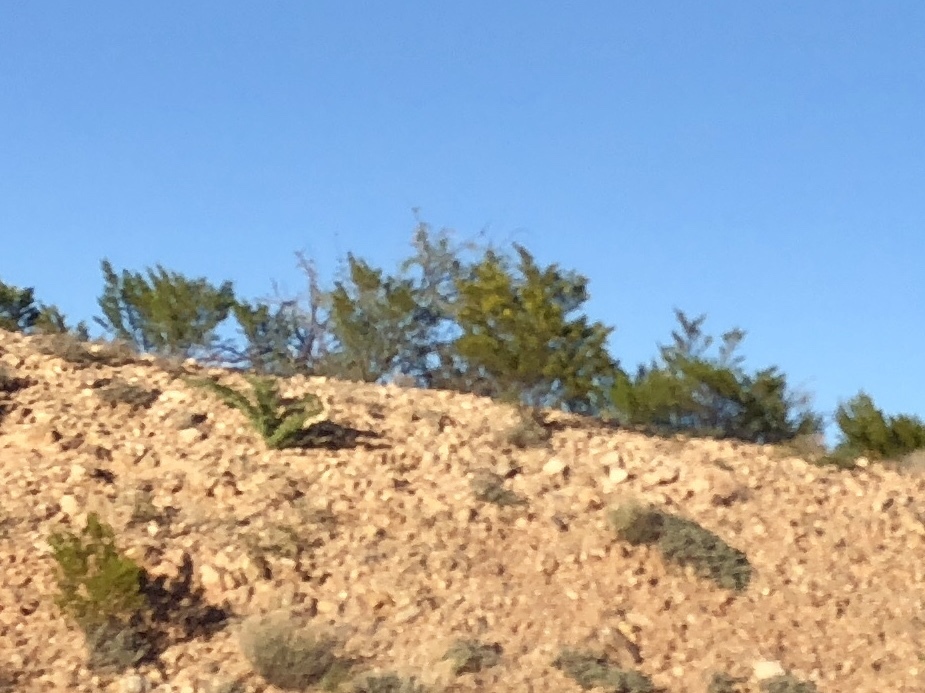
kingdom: Plantae
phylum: Tracheophyta
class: Magnoliopsida
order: Zygophyllales
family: Zygophyllaceae
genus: Larrea
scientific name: Larrea tridentata
